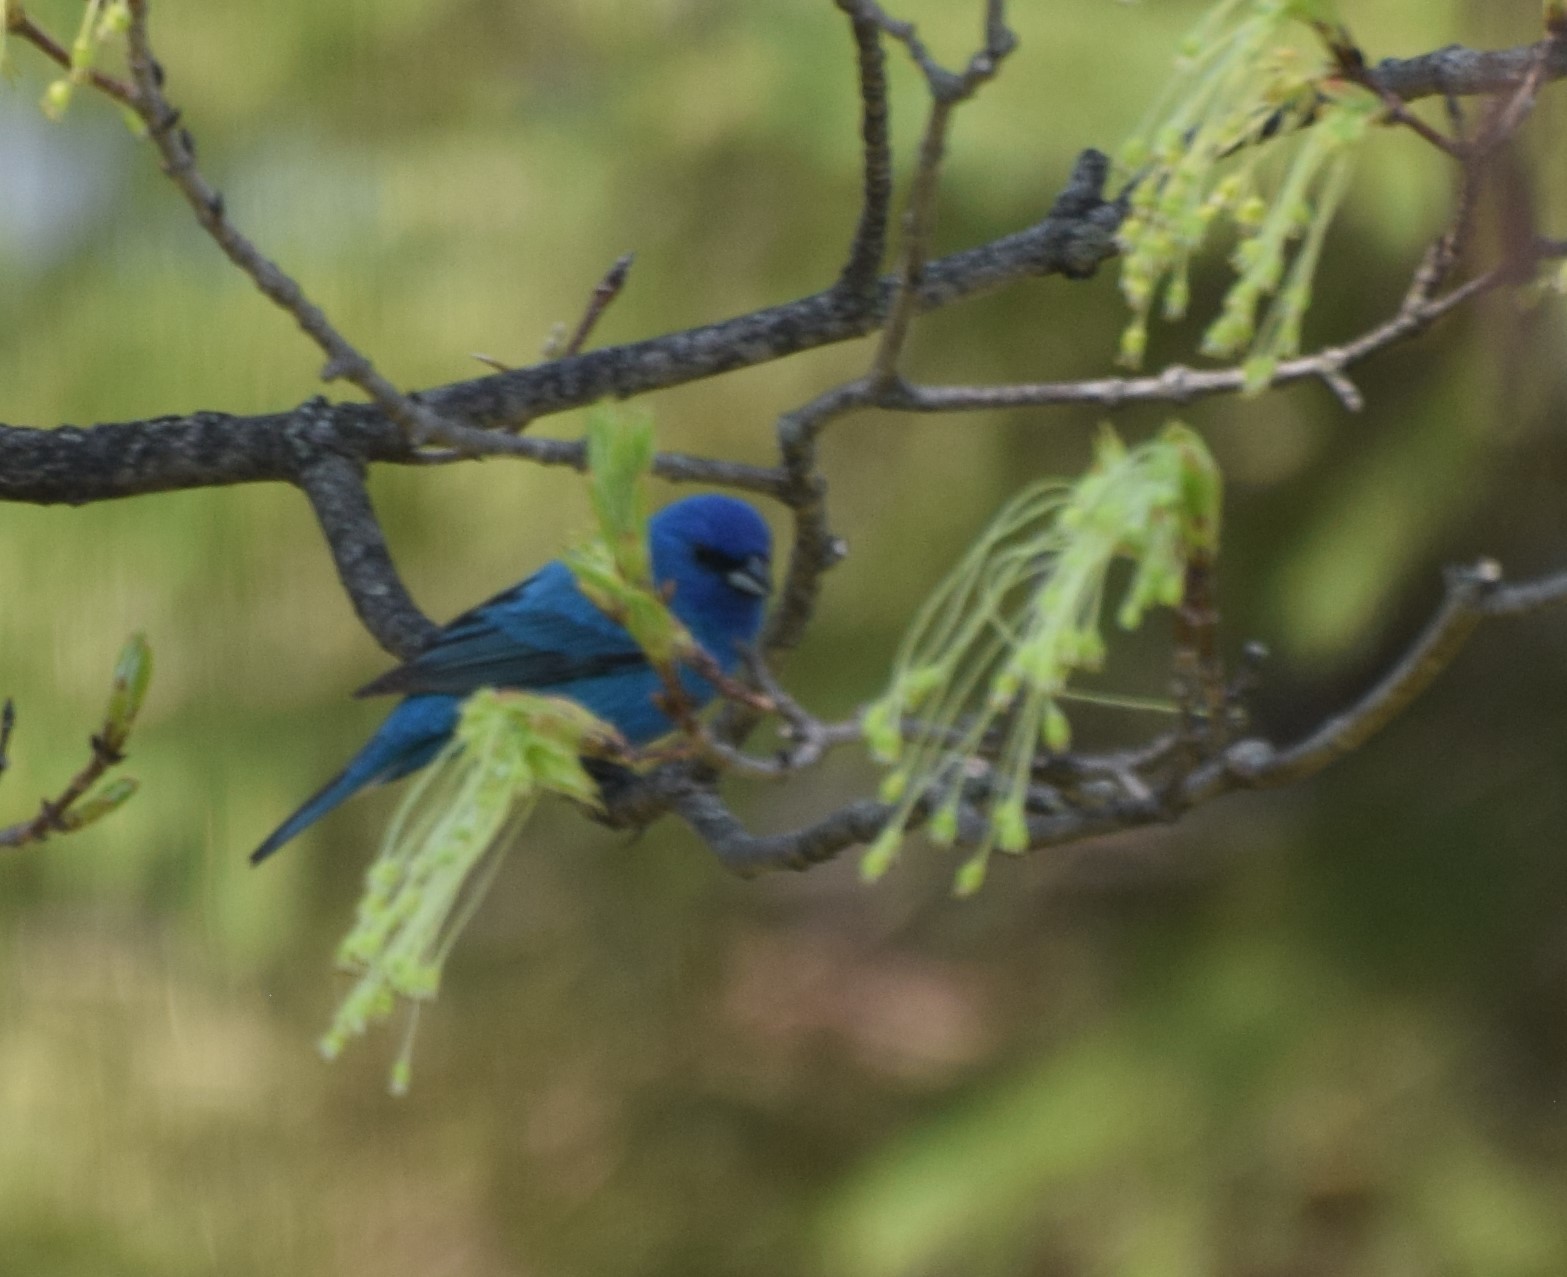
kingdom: Animalia
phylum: Chordata
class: Aves
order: Passeriformes
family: Cardinalidae
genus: Passerina
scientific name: Passerina cyanea
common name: Indigo bunting
